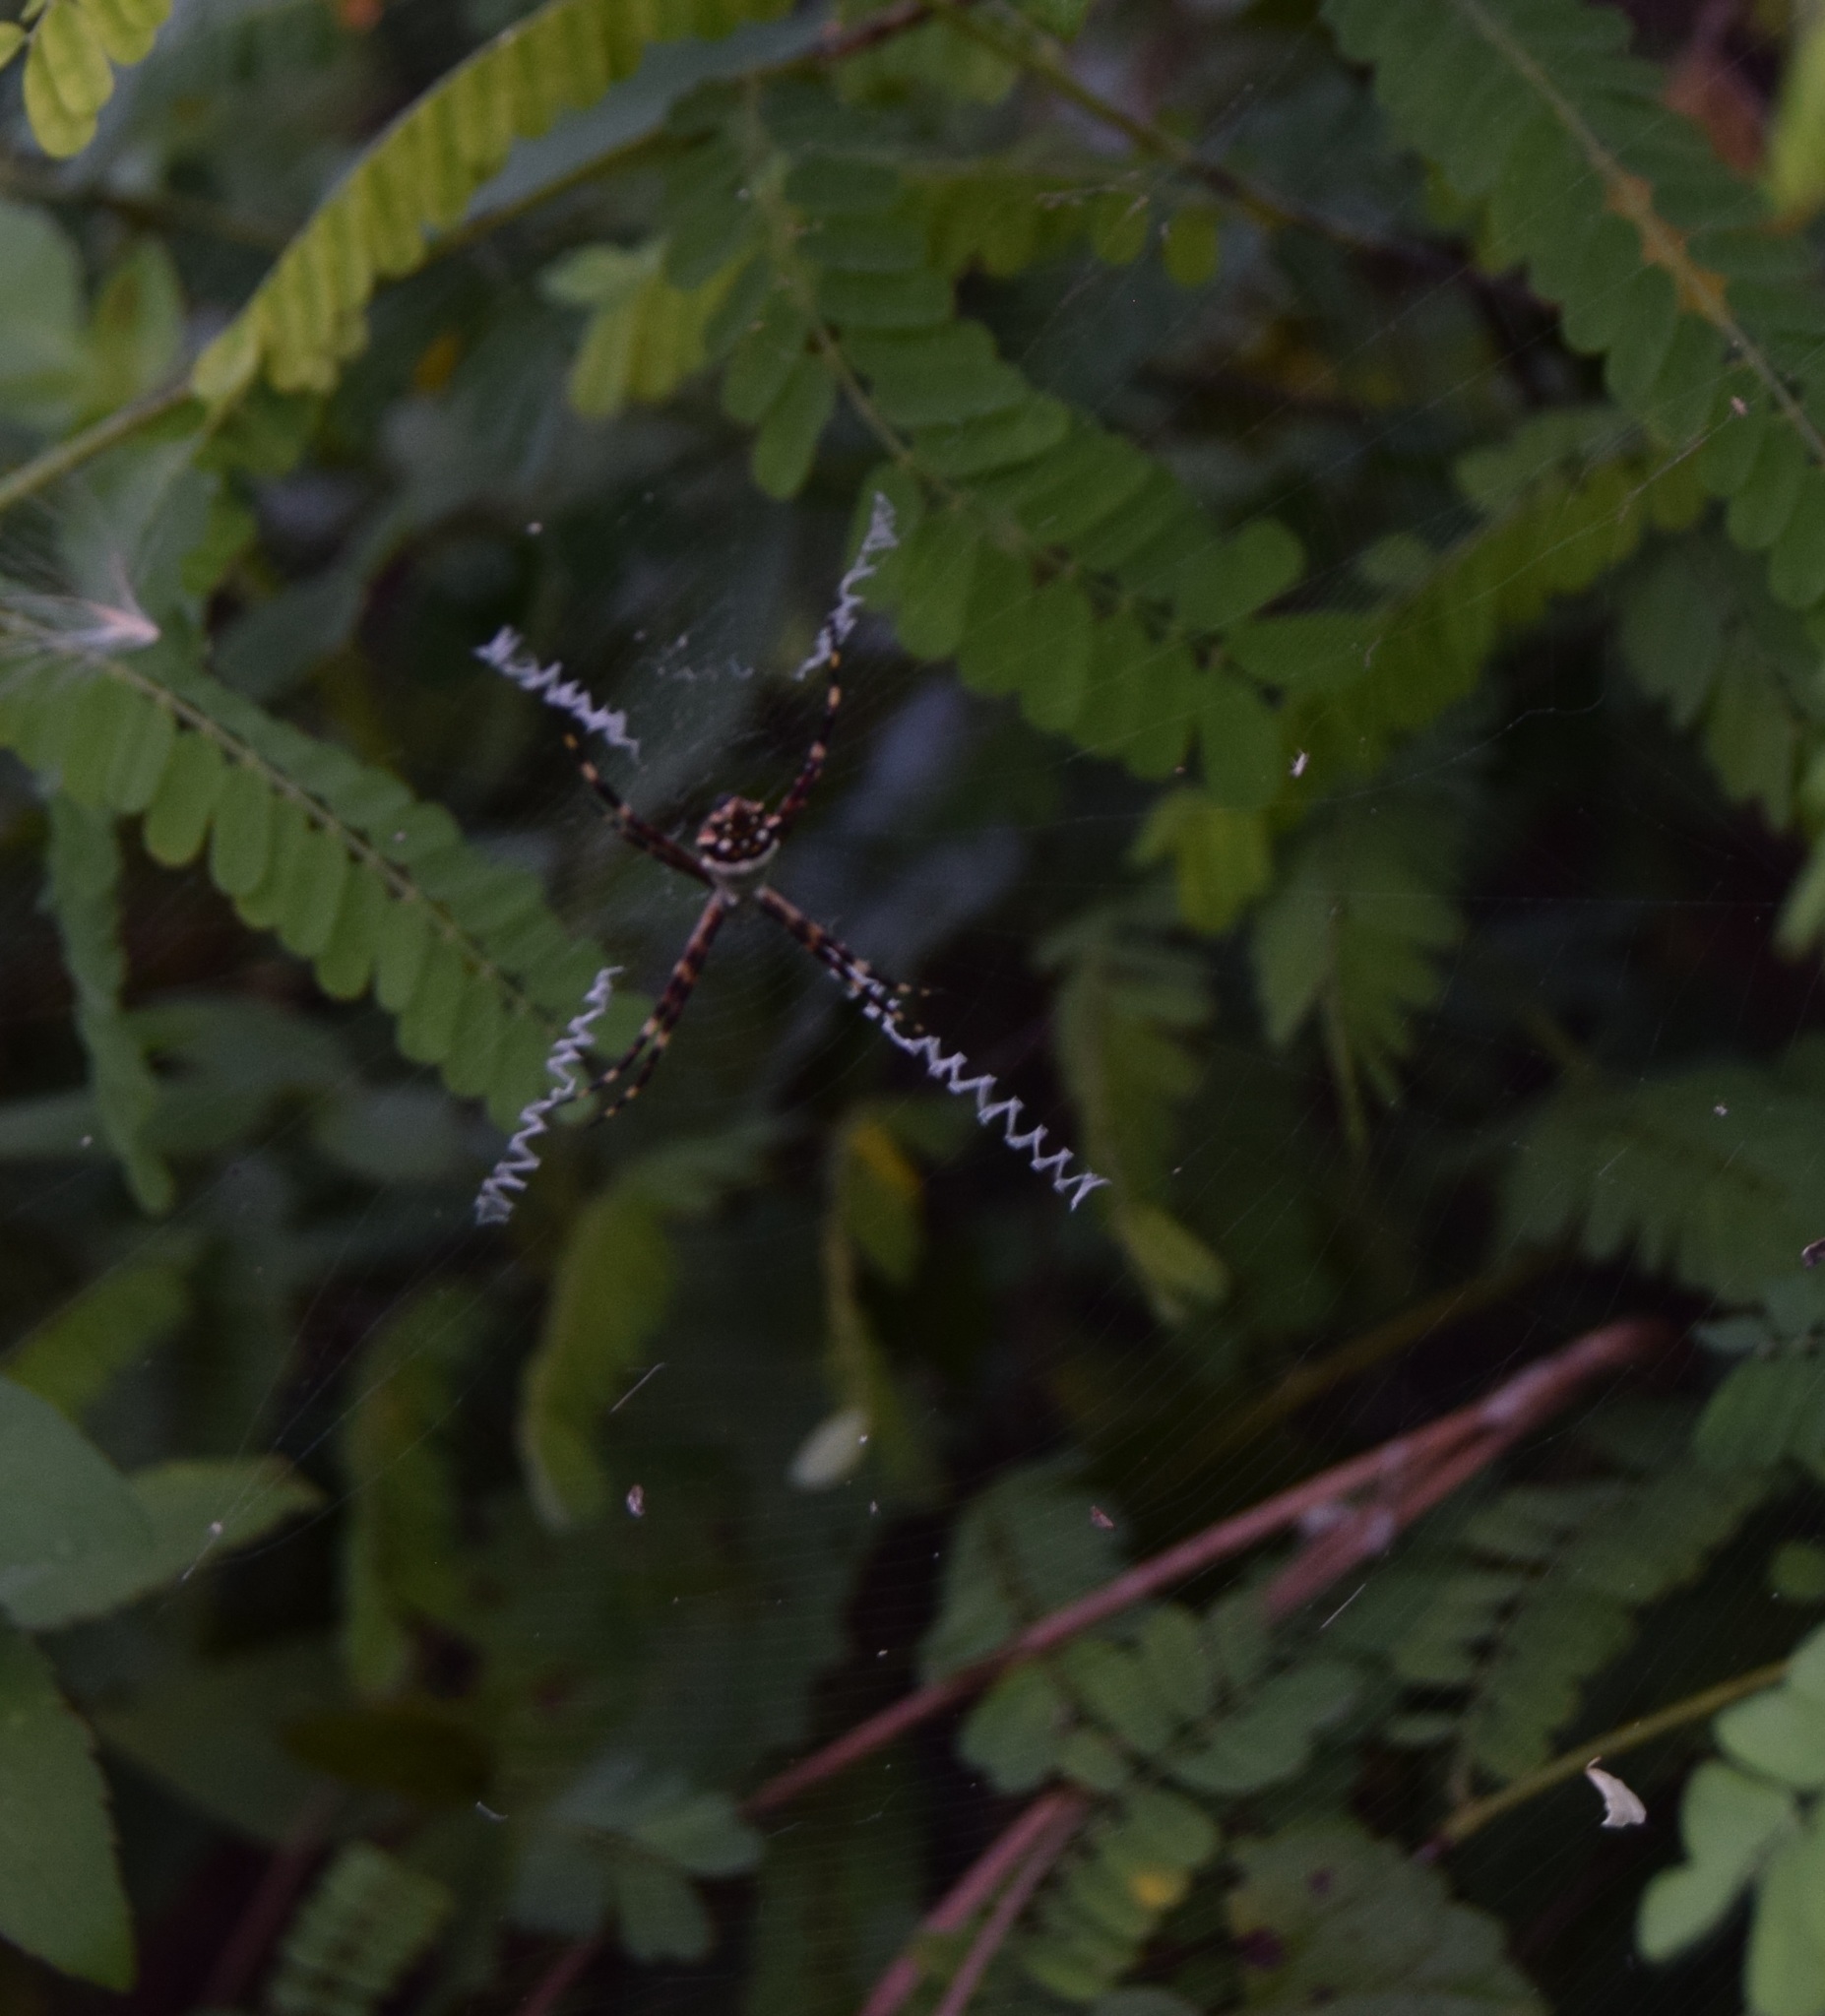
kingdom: Animalia
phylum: Arthropoda
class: Arachnida
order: Araneae
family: Araneidae
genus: Argiope
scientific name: Argiope argentata
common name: Orb weavers
